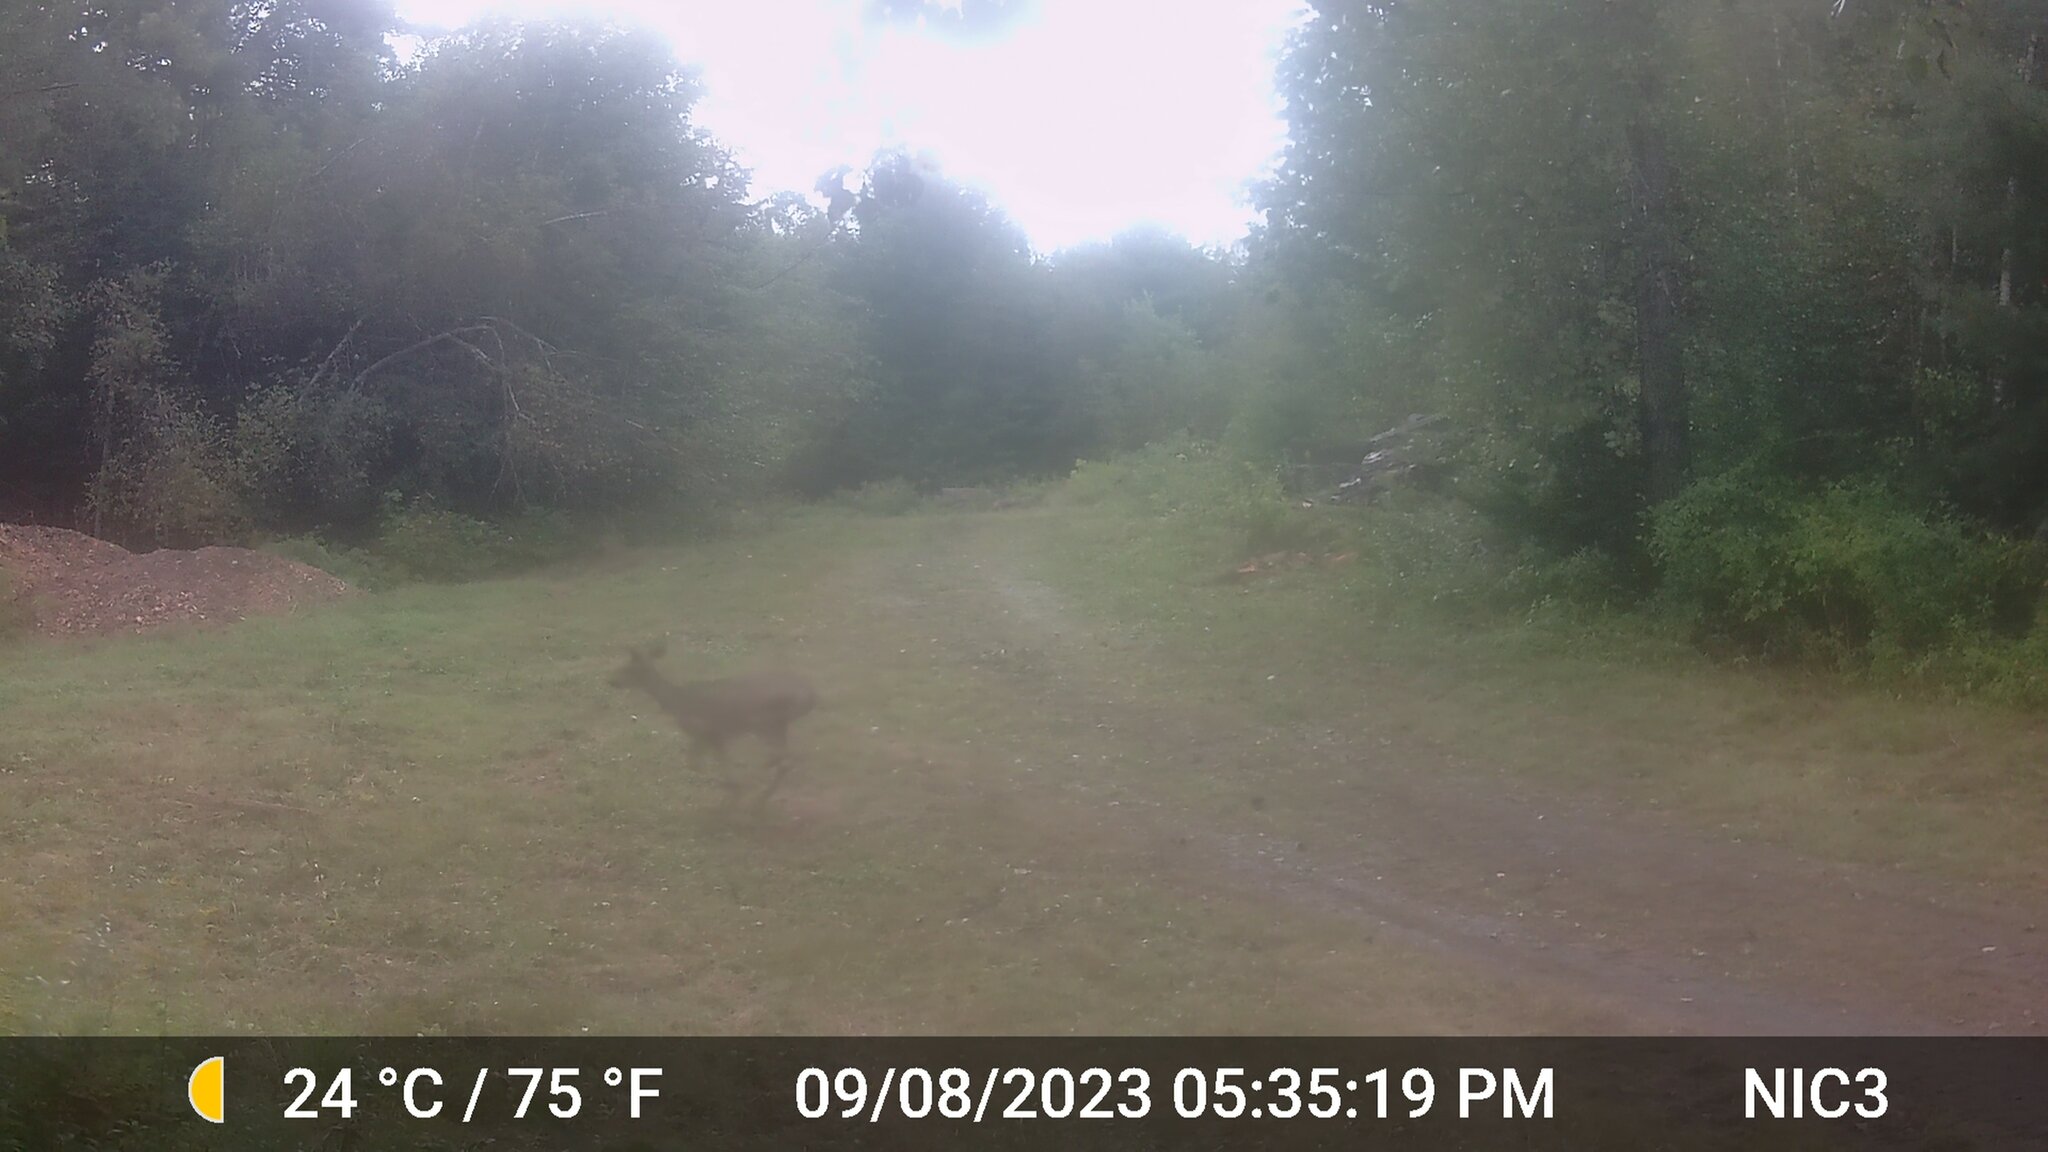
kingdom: Animalia
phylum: Chordata
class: Mammalia
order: Artiodactyla
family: Cervidae
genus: Odocoileus
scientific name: Odocoileus virginianus
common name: White-tailed deer
